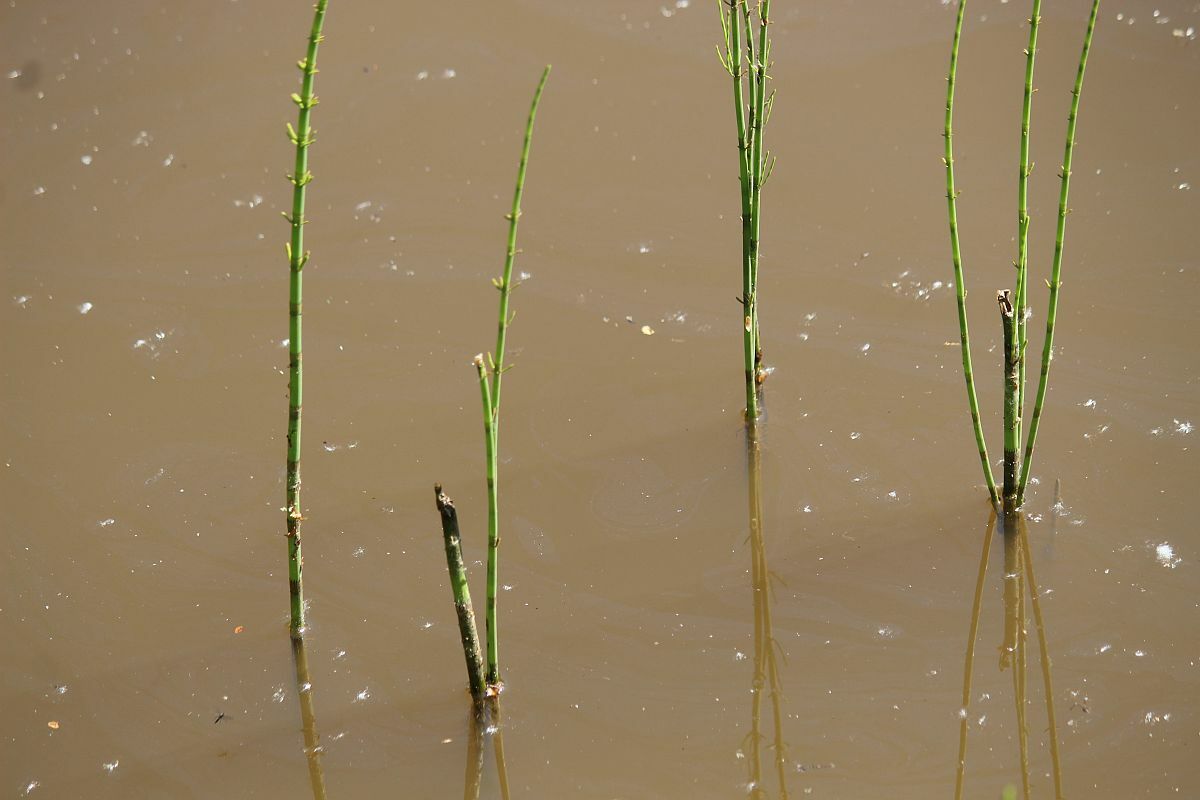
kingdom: Plantae
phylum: Tracheophyta
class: Polypodiopsida
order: Equisetales
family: Equisetaceae
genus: Equisetum
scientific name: Equisetum fluviatile
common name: Water horsetail
